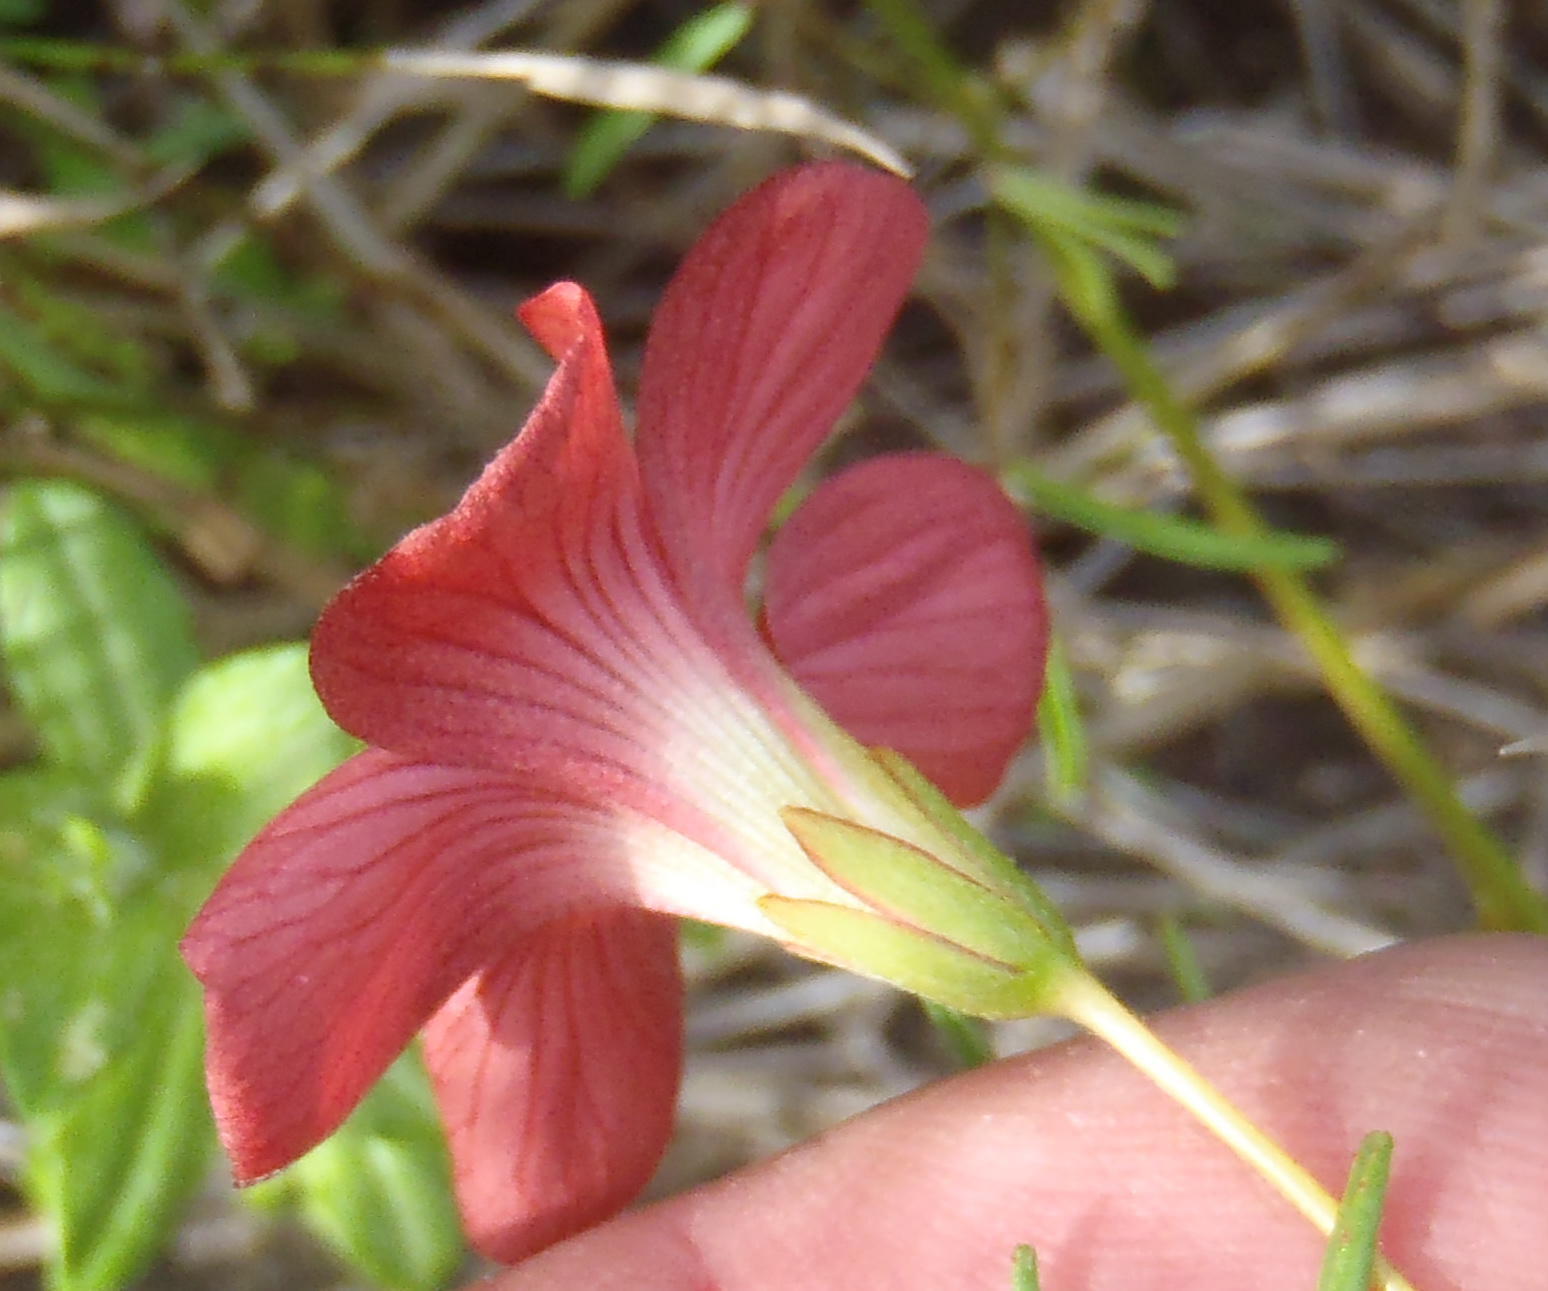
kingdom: Plantae
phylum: Tracheophyta
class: Magnoliopsida
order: Oxalidales
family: Oxalidaceae
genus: Oxalis
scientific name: Oxalis pendulifolia
